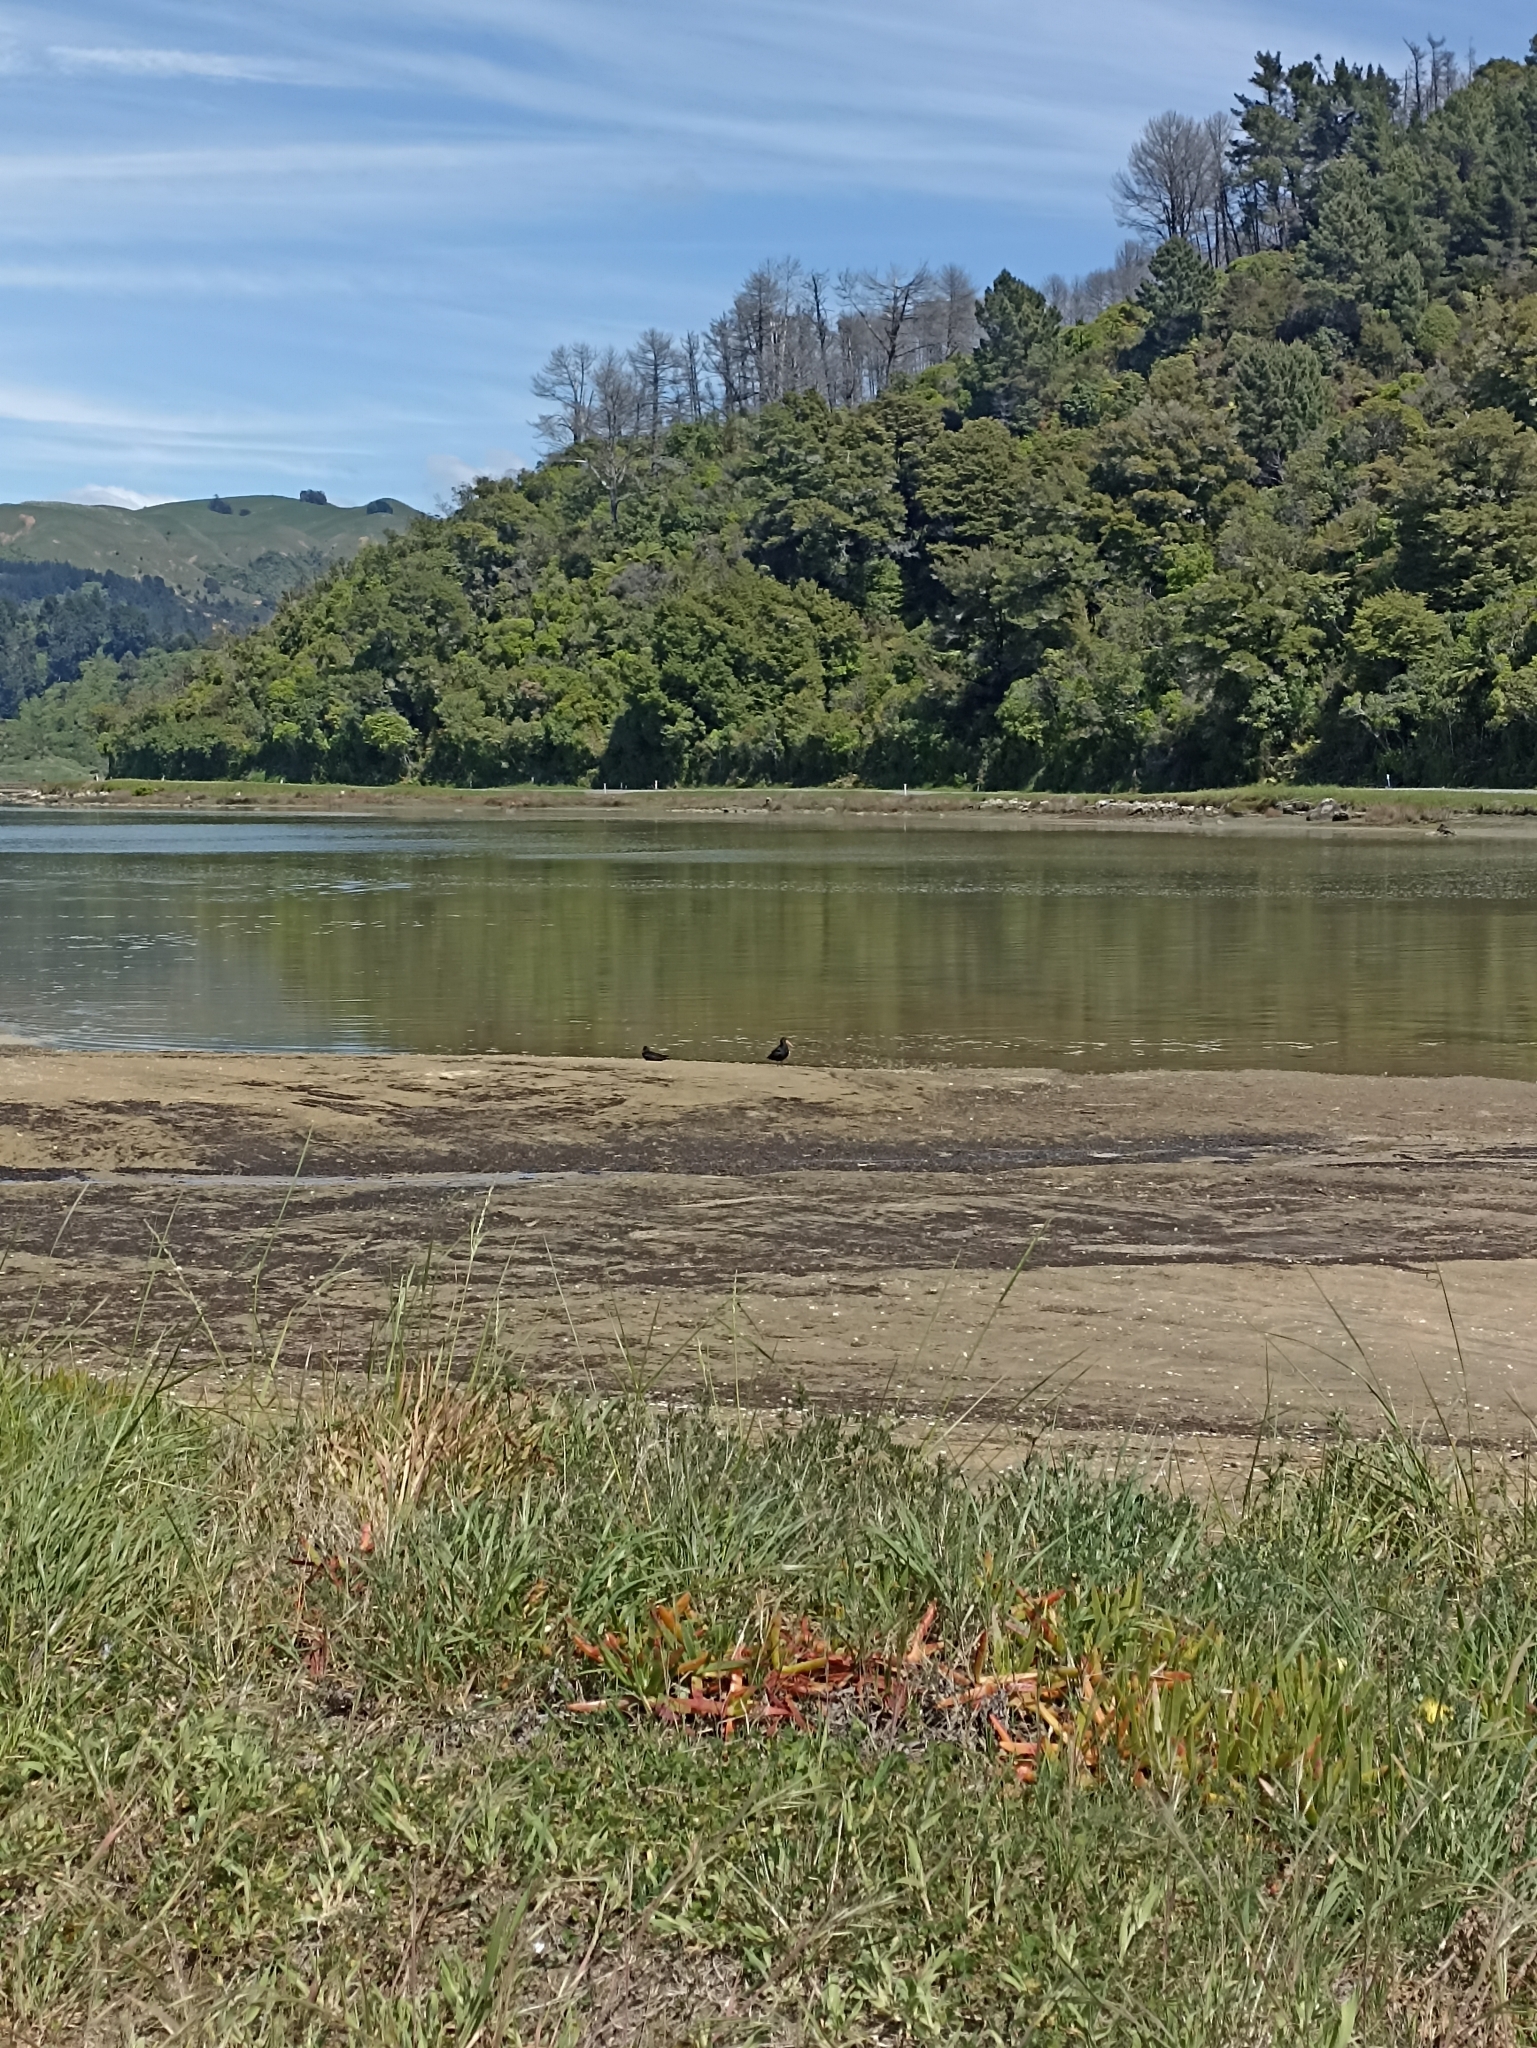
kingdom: Animalia
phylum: Chordata
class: Aves
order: Charadriiformes
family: Haematopodidae
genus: Haematopus
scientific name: Haematopus unicolor
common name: Variable oystercatcher
